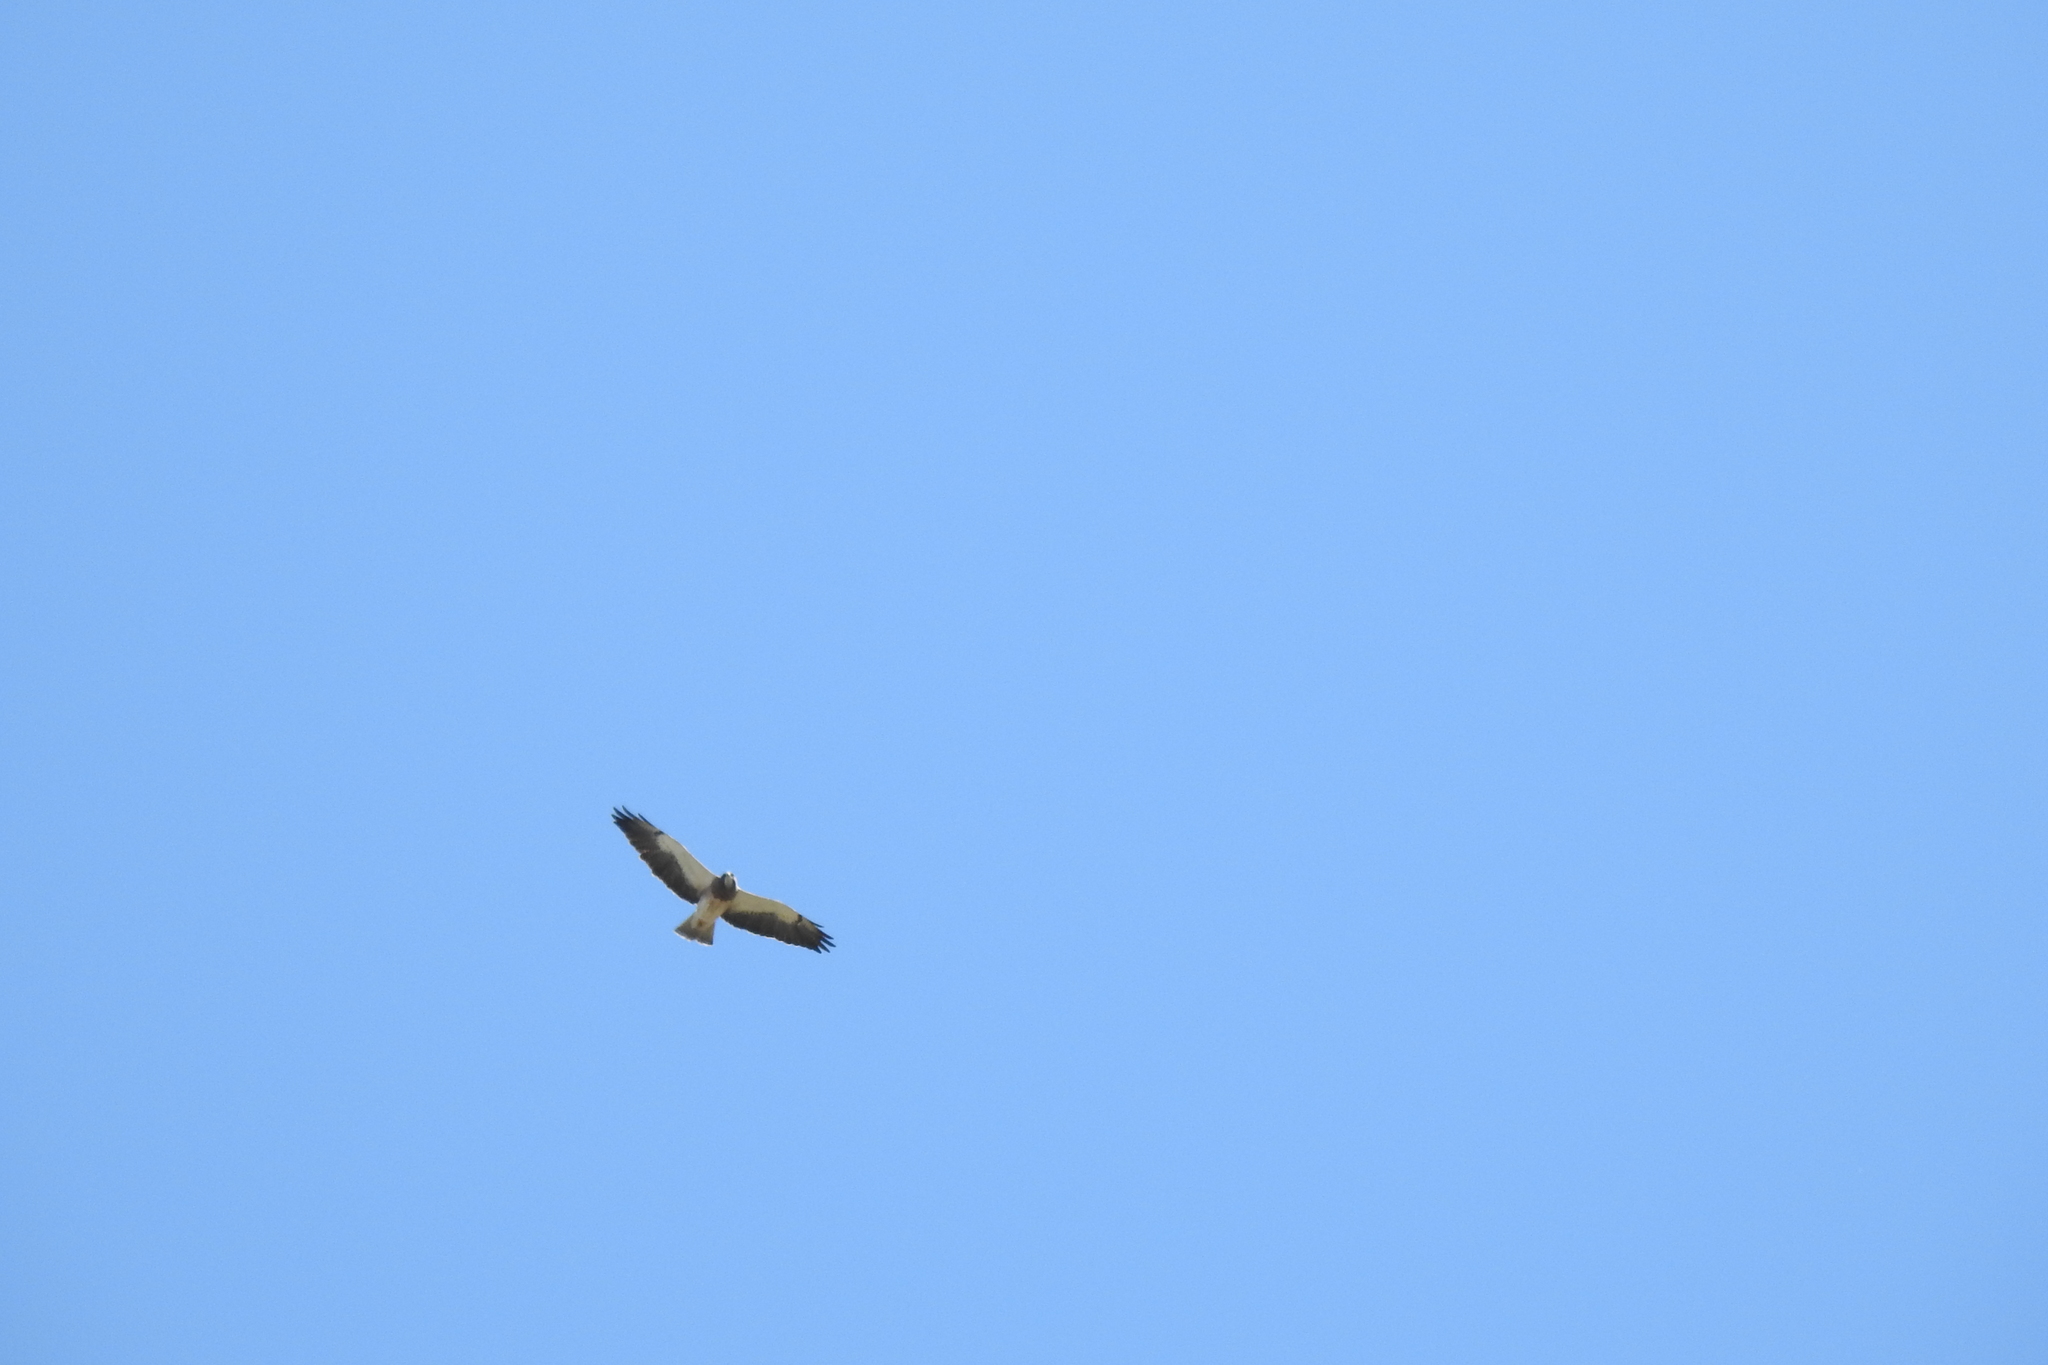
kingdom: Animalia
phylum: Chordata
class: Aves
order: Accipitriformes
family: Accipitridae
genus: Buteo
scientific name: Buteo swainsoni
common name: Swainson's hawk
